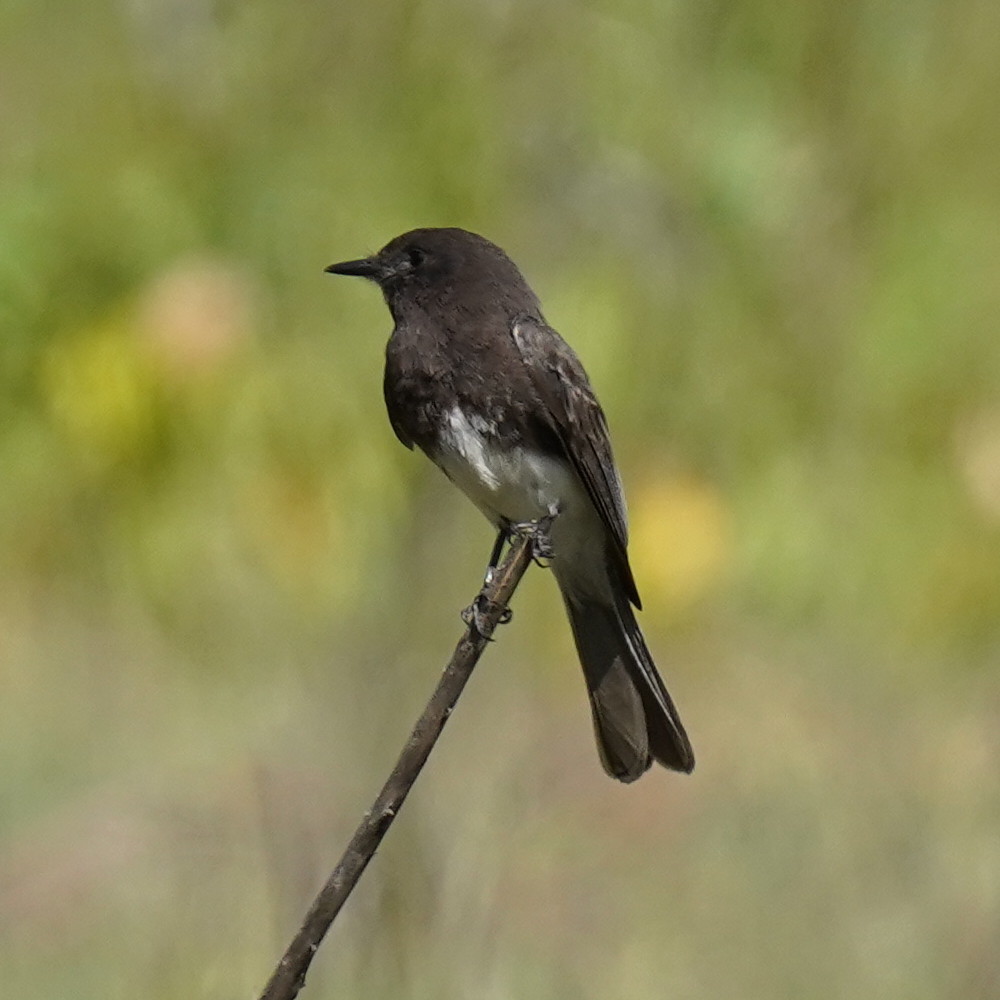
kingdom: Animalia
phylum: Chordata
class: Aves
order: Passeriformes
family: Tyrannidae
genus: Sayornis
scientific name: Sayornis nigricans
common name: Black phoebe
